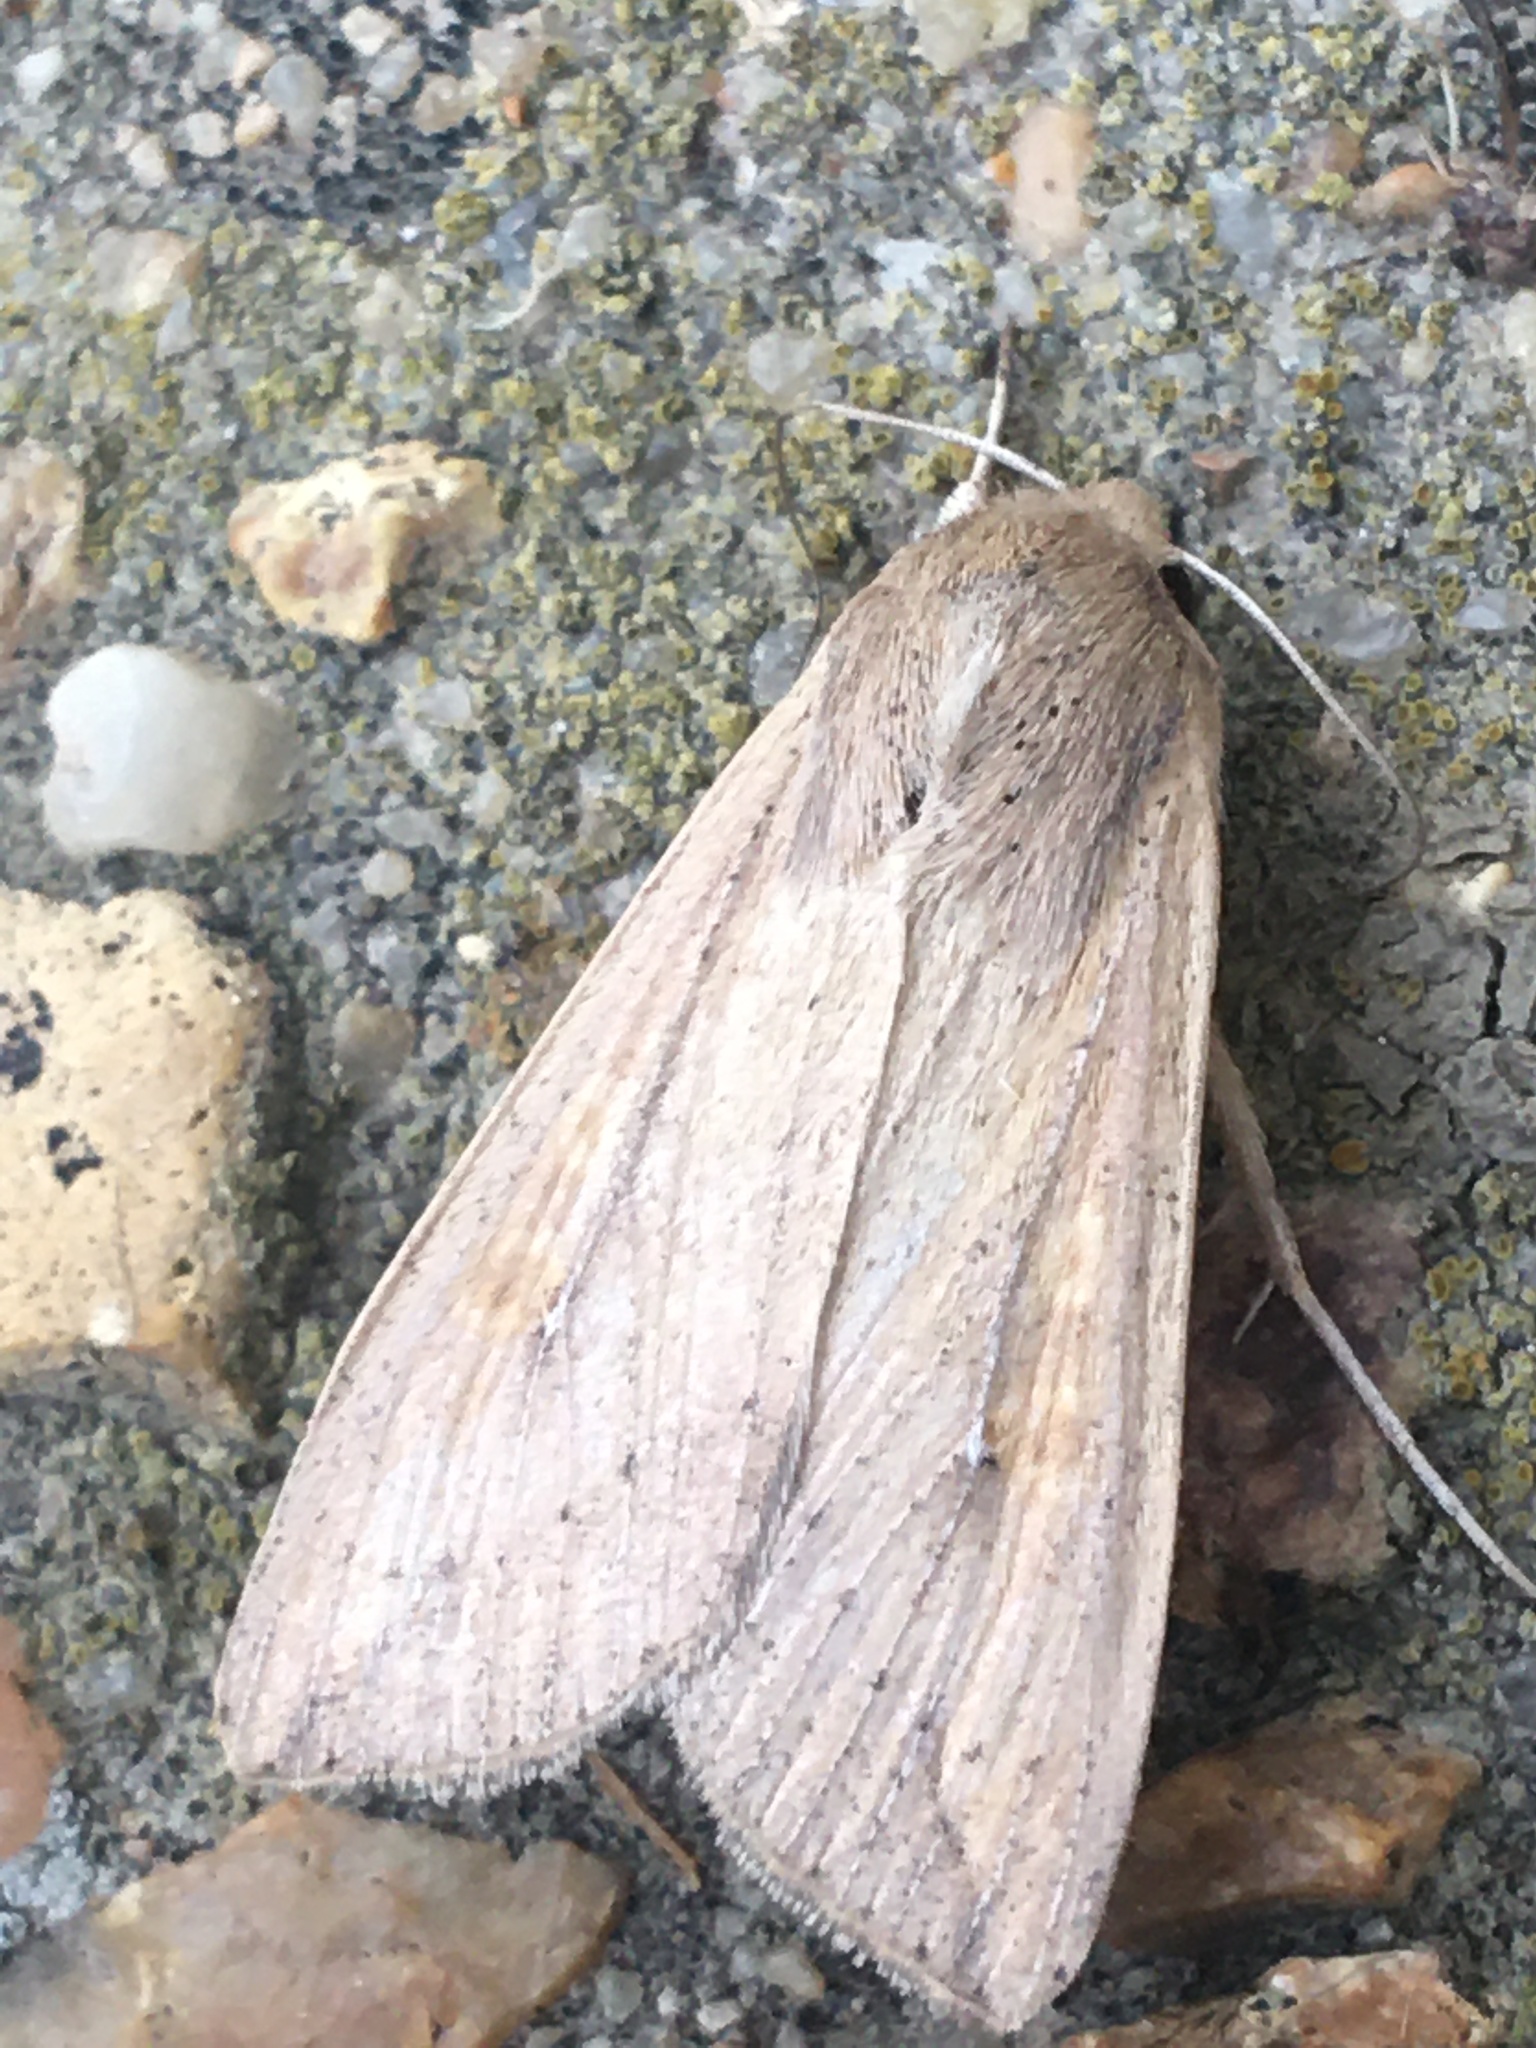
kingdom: Animalia
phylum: Arthropoda
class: Insecta
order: Lepidoptera
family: Noctuidae
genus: Mythimna
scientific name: Mythimna unipuncta
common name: White-speck
